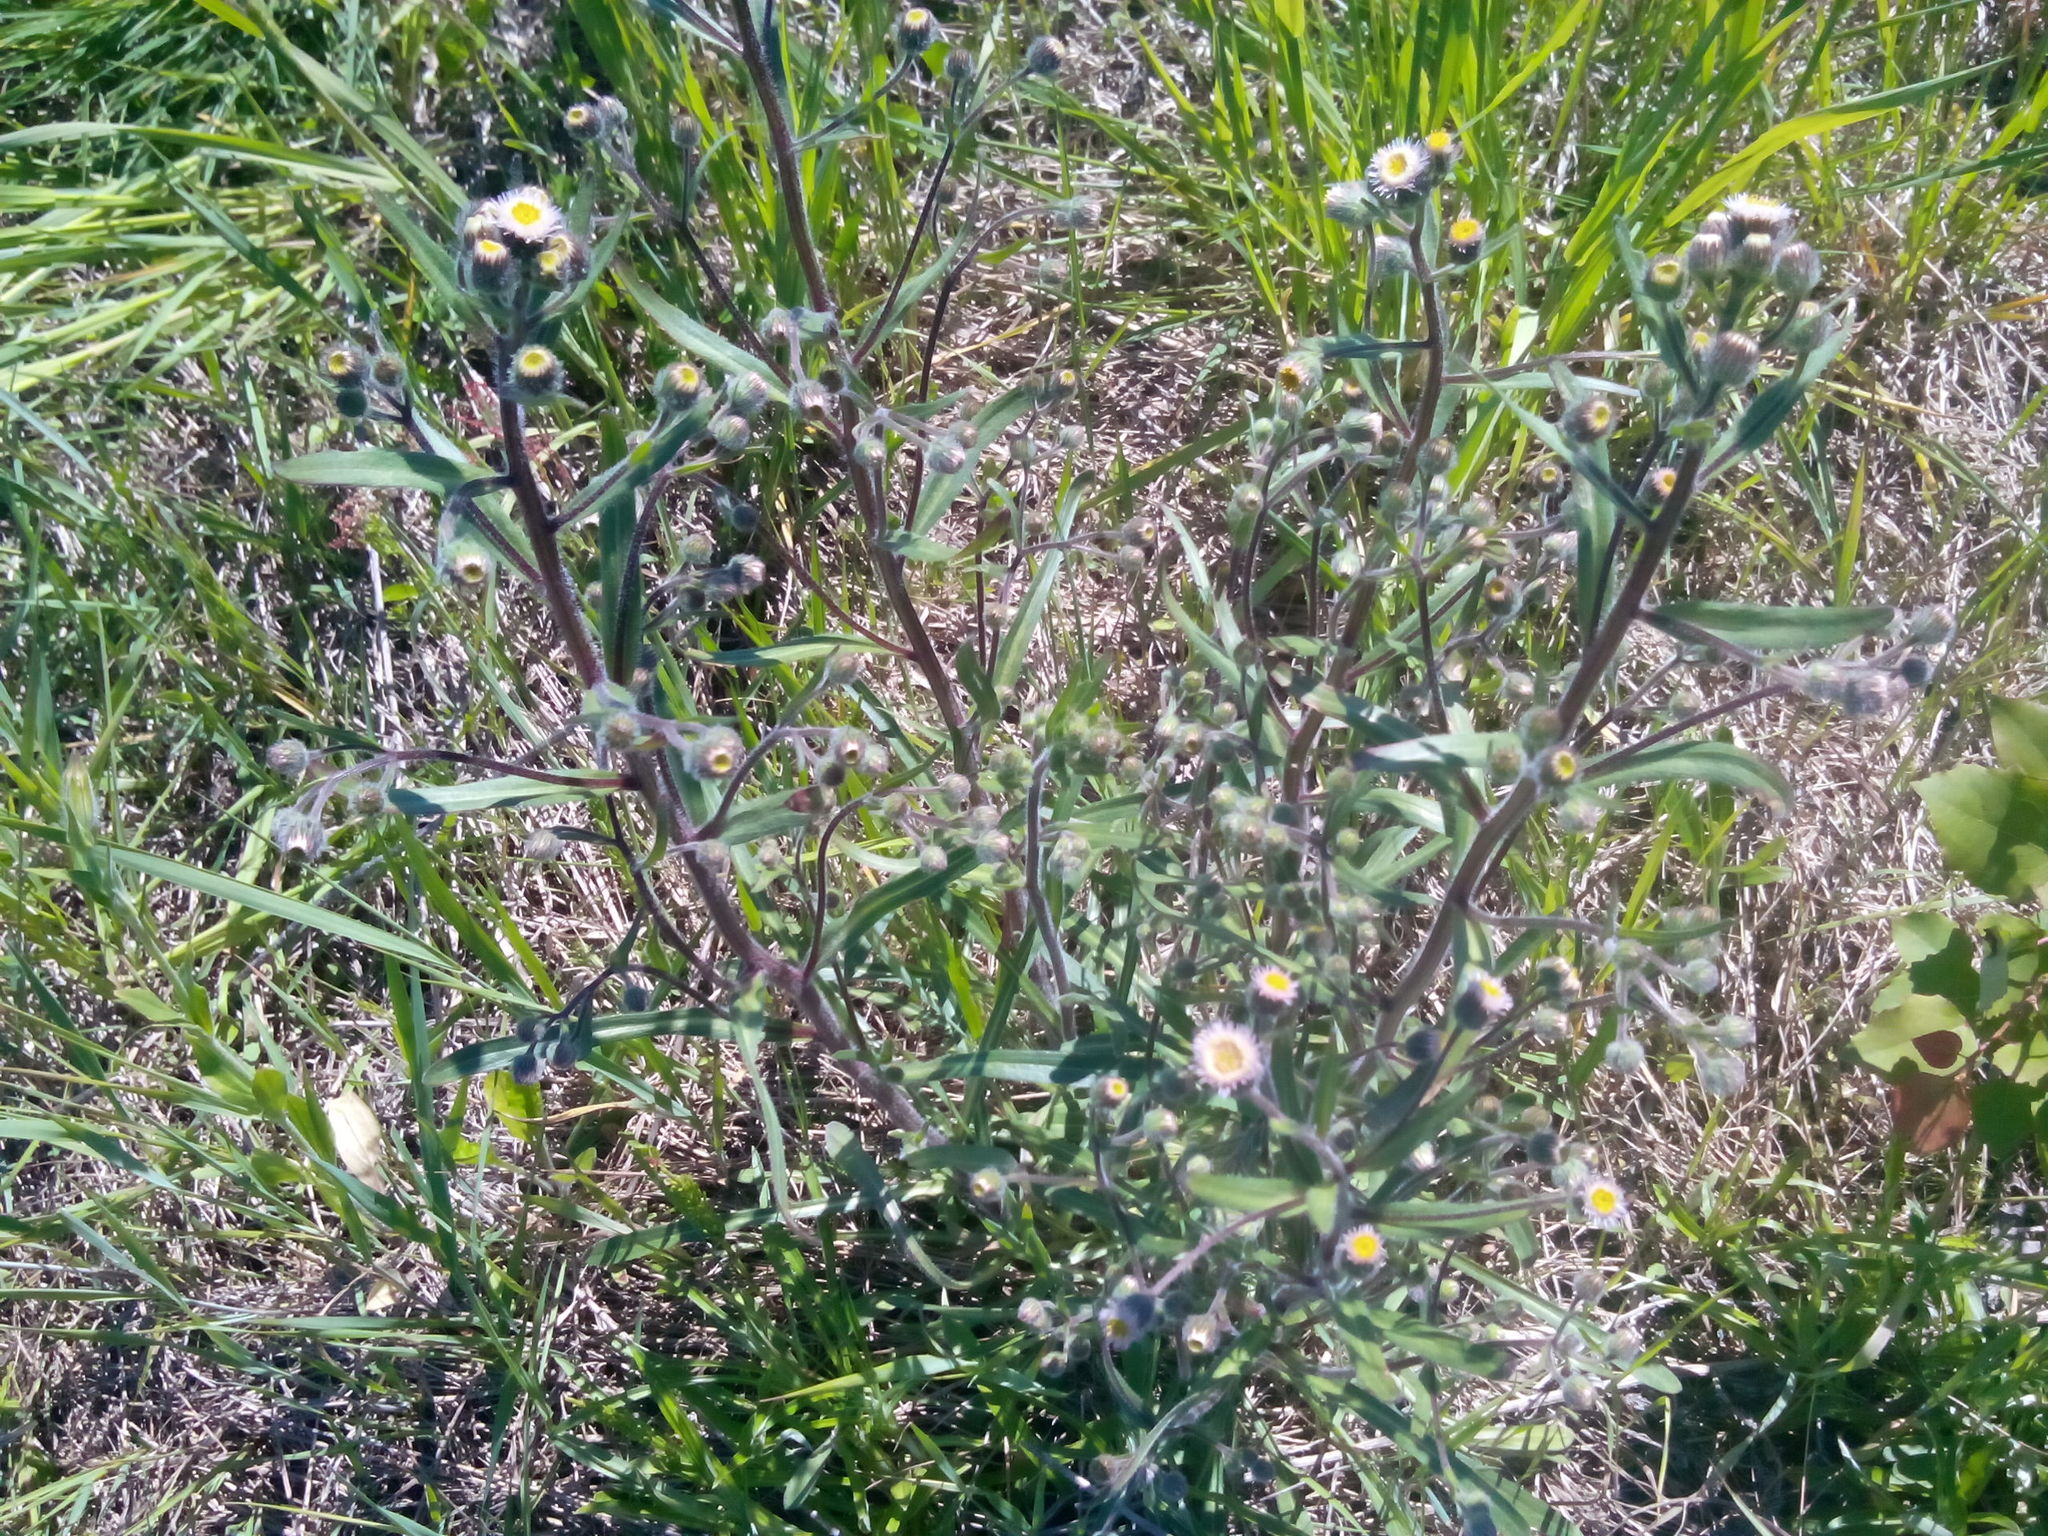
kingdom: Plantae
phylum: Tracheophyta
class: Magnoliopsida
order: Asterales
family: Asteraceae
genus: Erigeron
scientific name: Erigeron acris
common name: Blue fleabane
